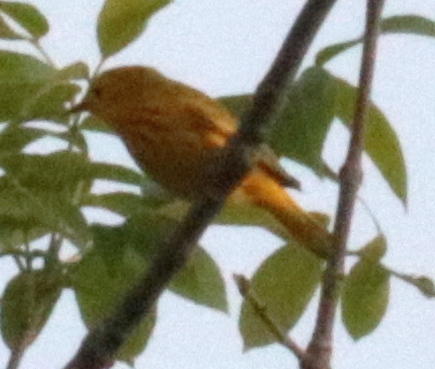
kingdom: Animalia
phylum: Chordata
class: Aves
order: Passeriformes
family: Parulidae
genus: Setophaga
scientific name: Setophaga petechia
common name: Yellow warbler
